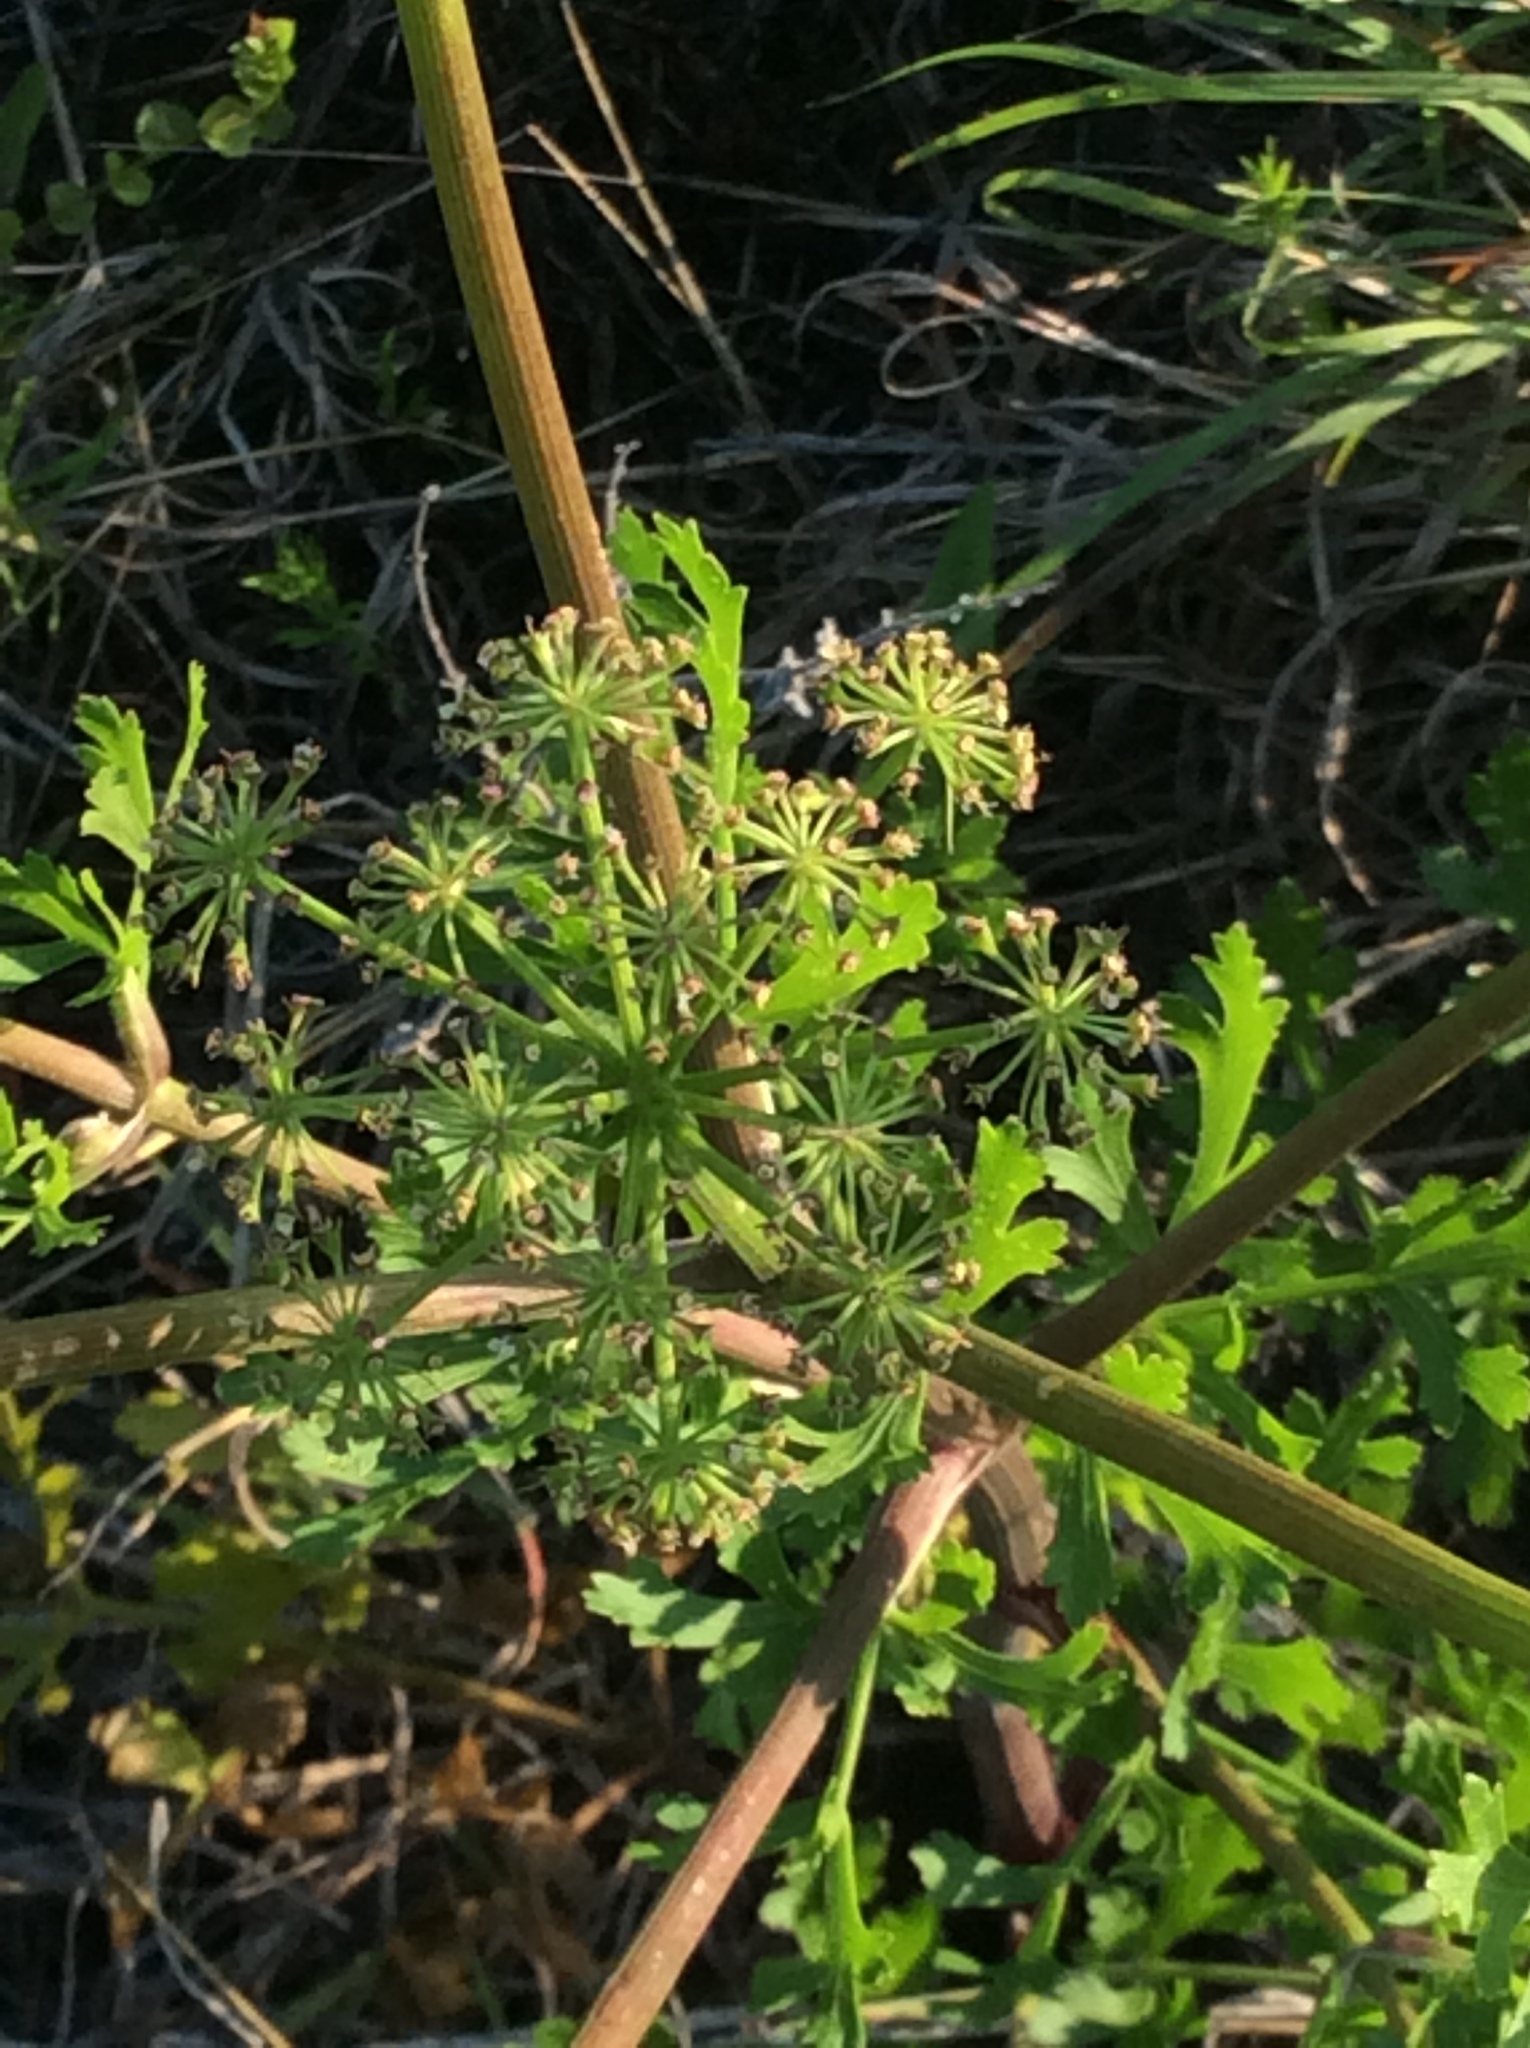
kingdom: Plantae
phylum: Tracheophyta
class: Magnoliopsida
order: Apiales
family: Apiaceae
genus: Polytaenia
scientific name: Polytaenia texana
